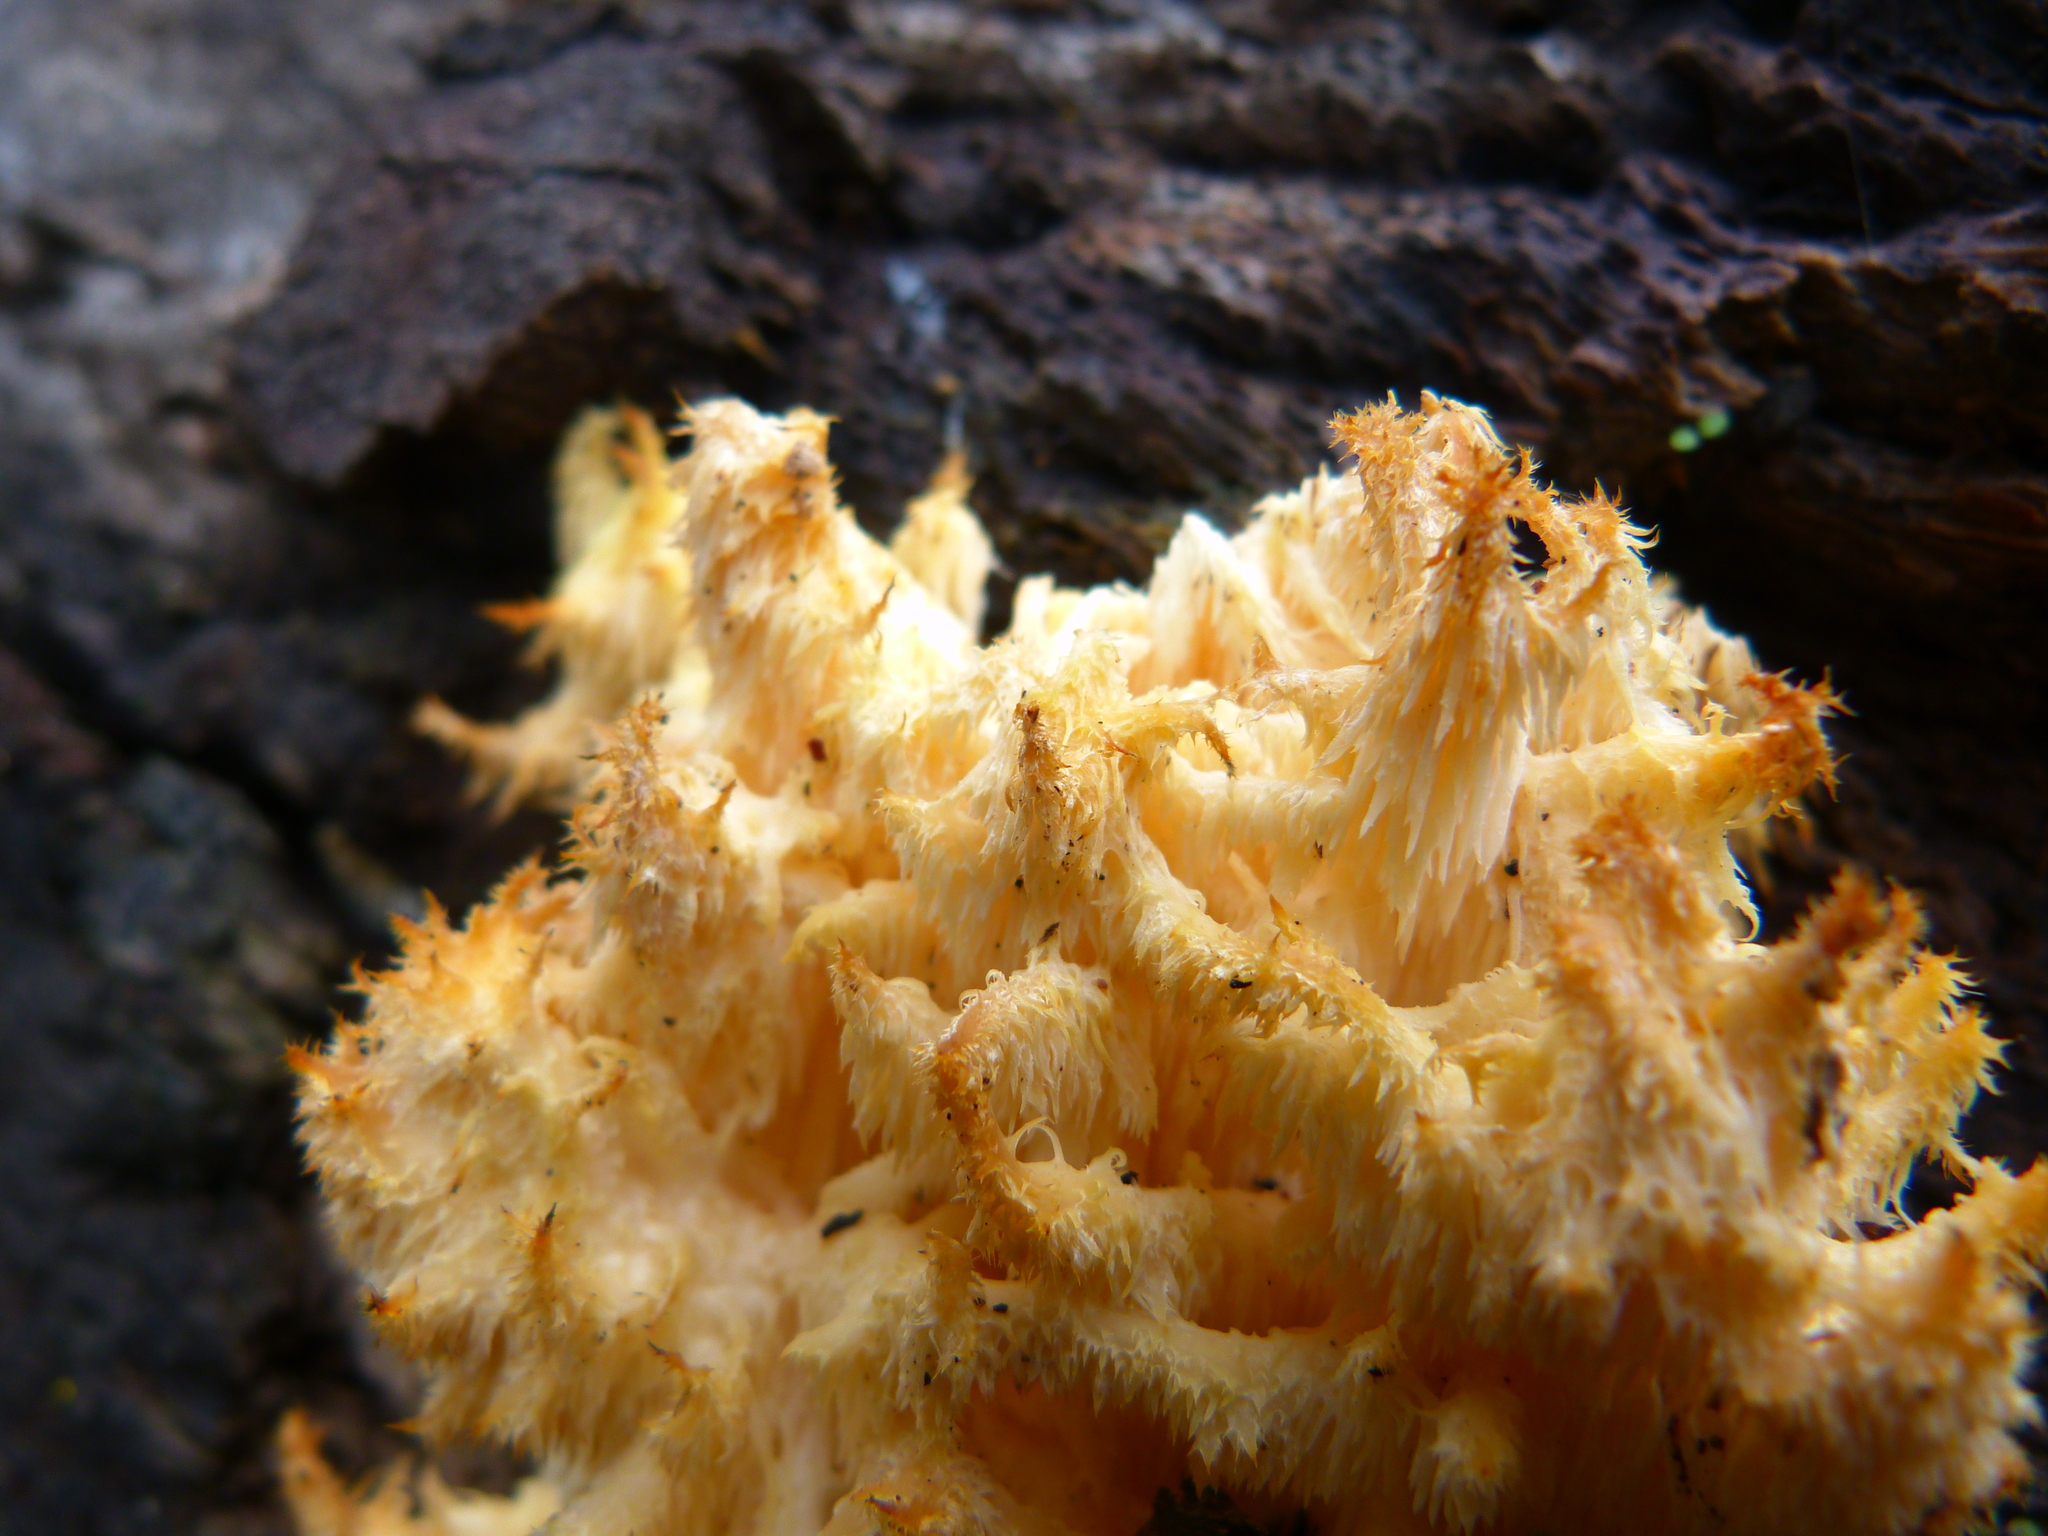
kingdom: Fungi
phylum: Basidiomycota
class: Agaricomycetes
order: Russulales
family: Hericiaceae
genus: Hericium
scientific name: Hericium coralloides
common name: Coral tooth
